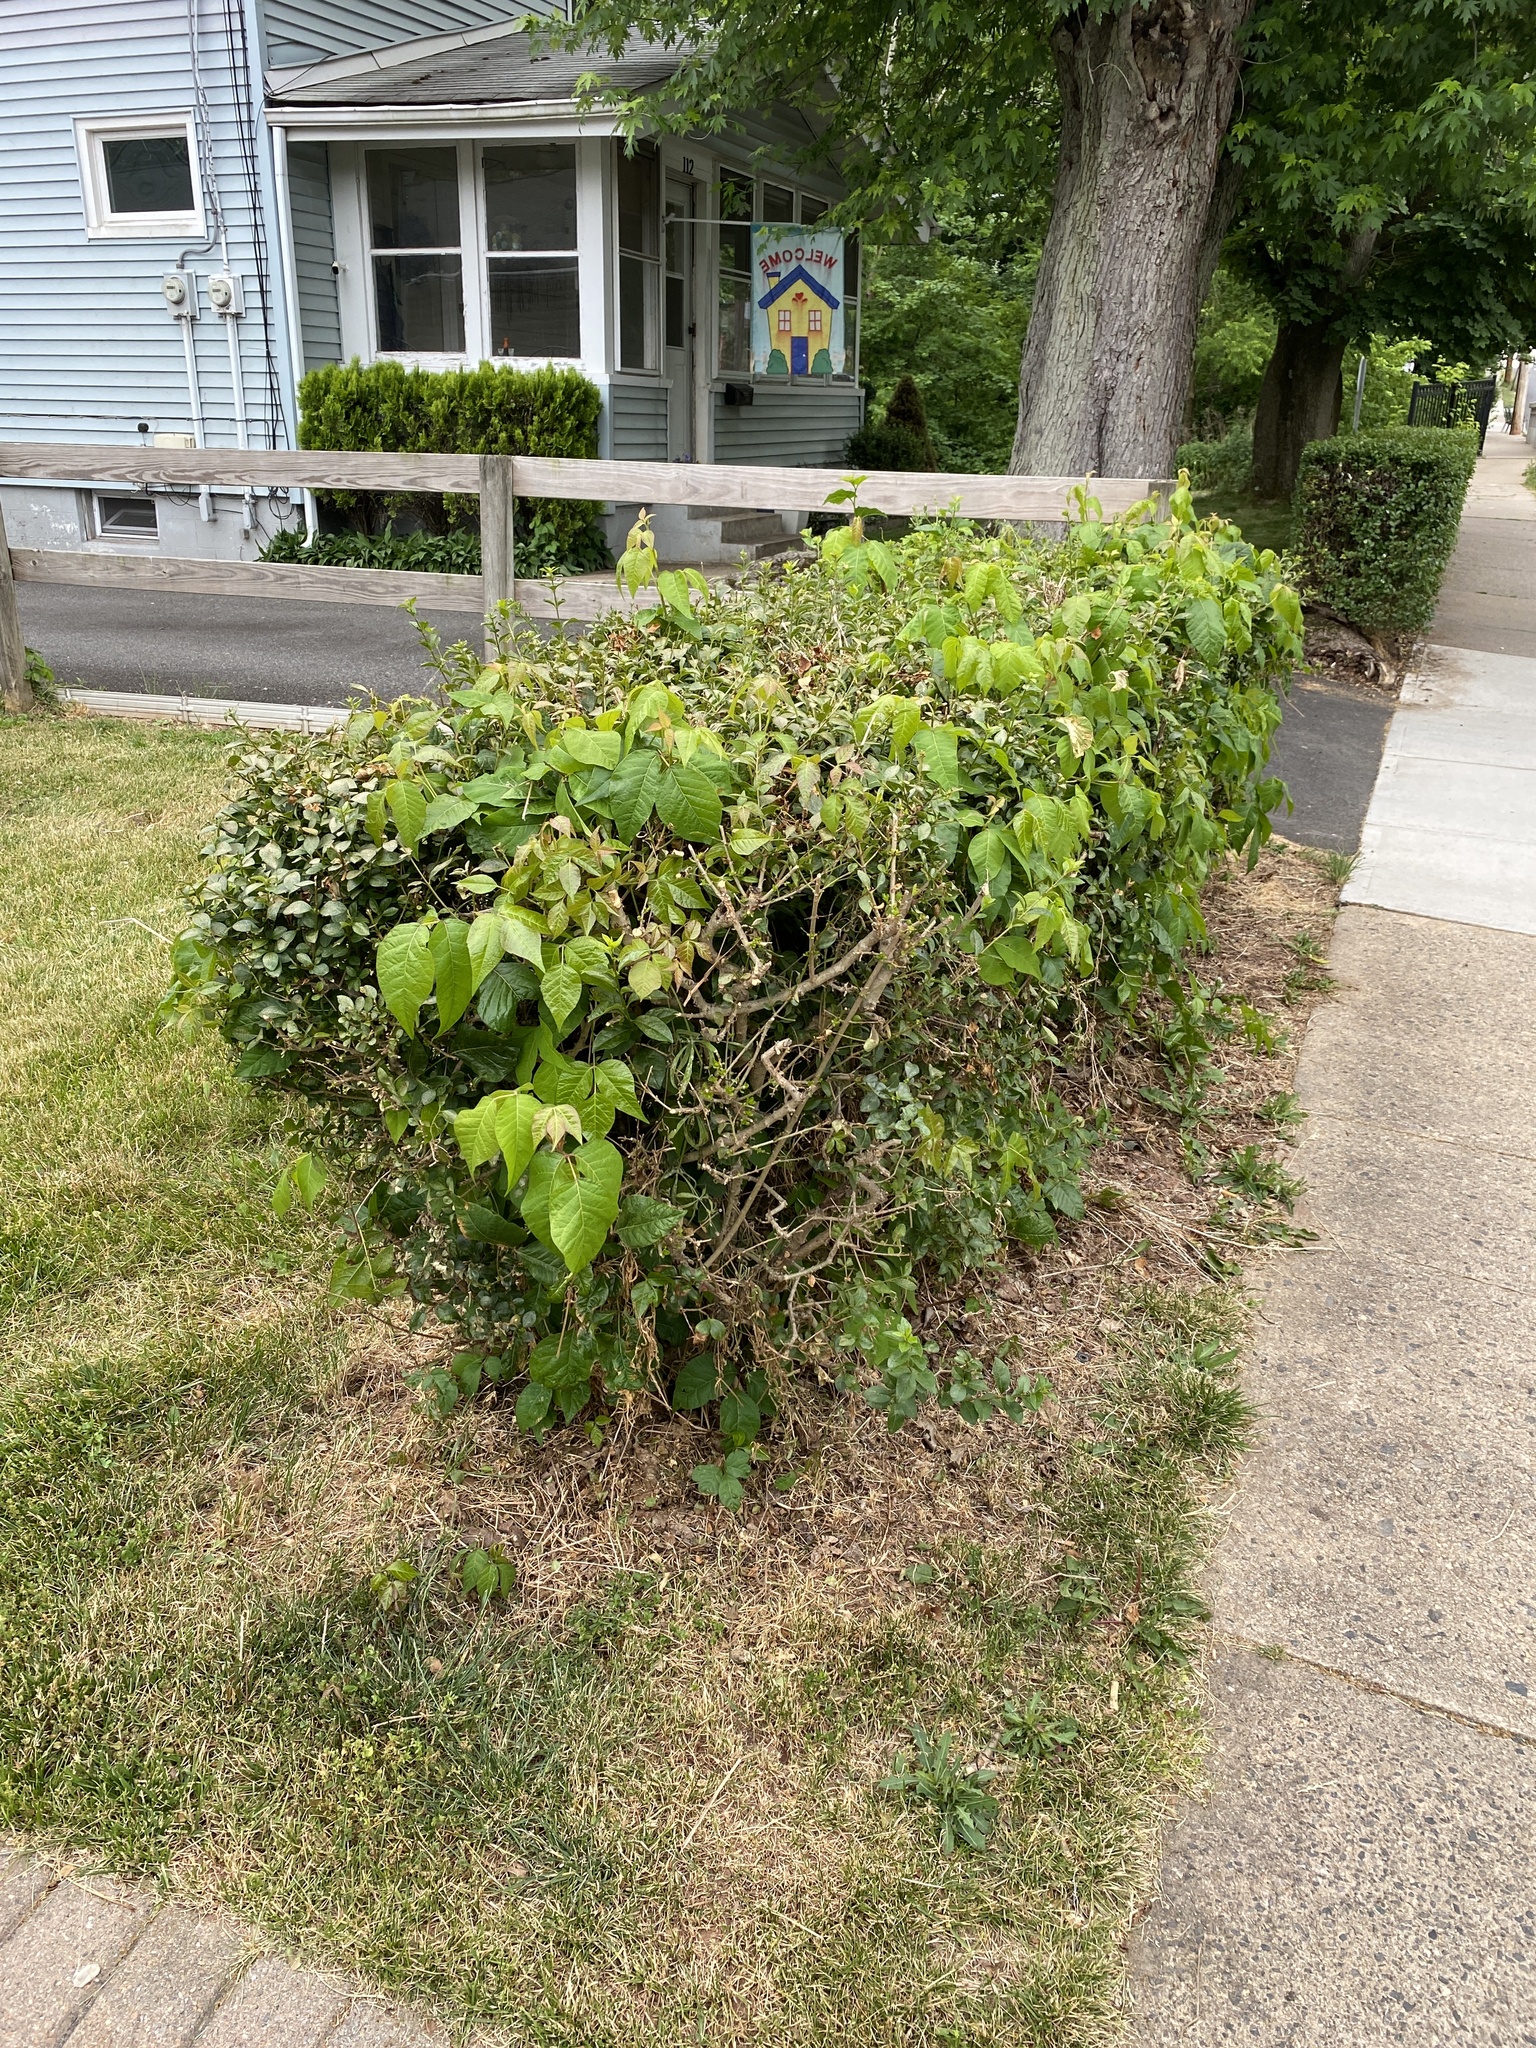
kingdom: Plantae
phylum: Tracheophyta
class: Magnoliopsida
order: Sapindales
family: Anacardiaceae
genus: Toxicodendron
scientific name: Toxicodendron radicans
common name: Poison ivy
